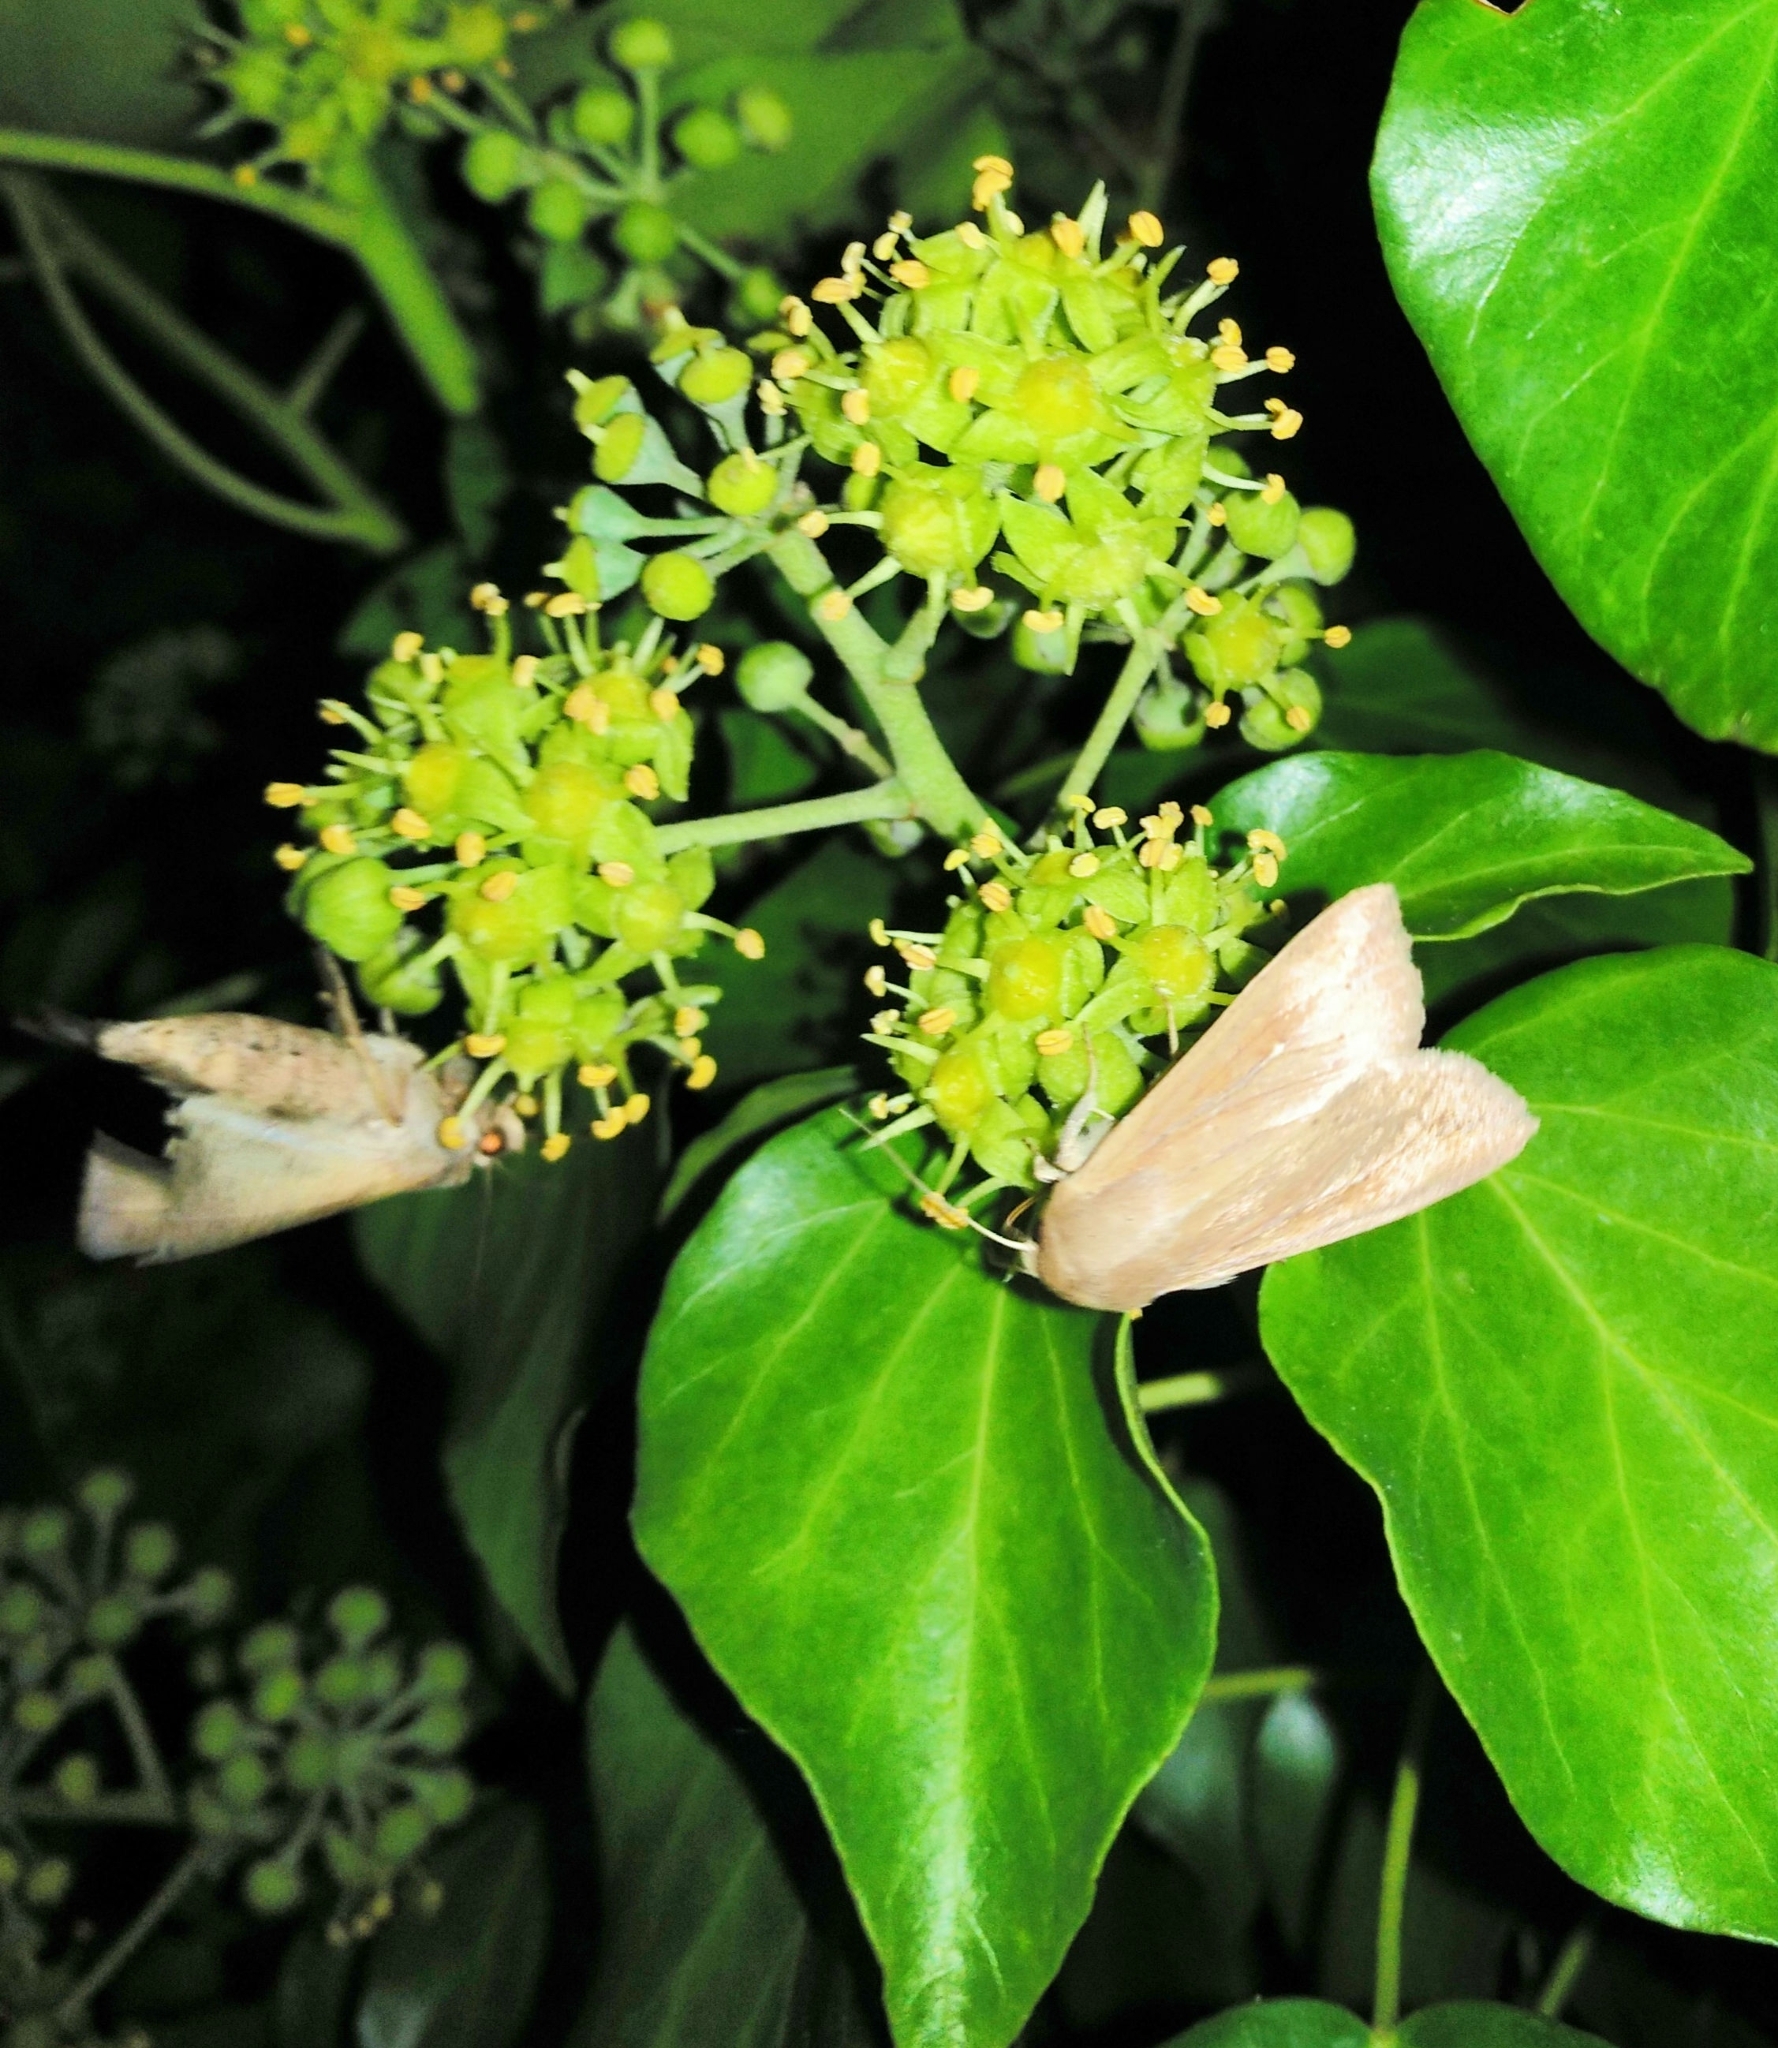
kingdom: Animalia
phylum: Arthropoda
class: Insecta
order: Lepidoptera
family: Noctuidae
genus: Mythimna
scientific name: Mythimna unipuncta
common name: White-speck
